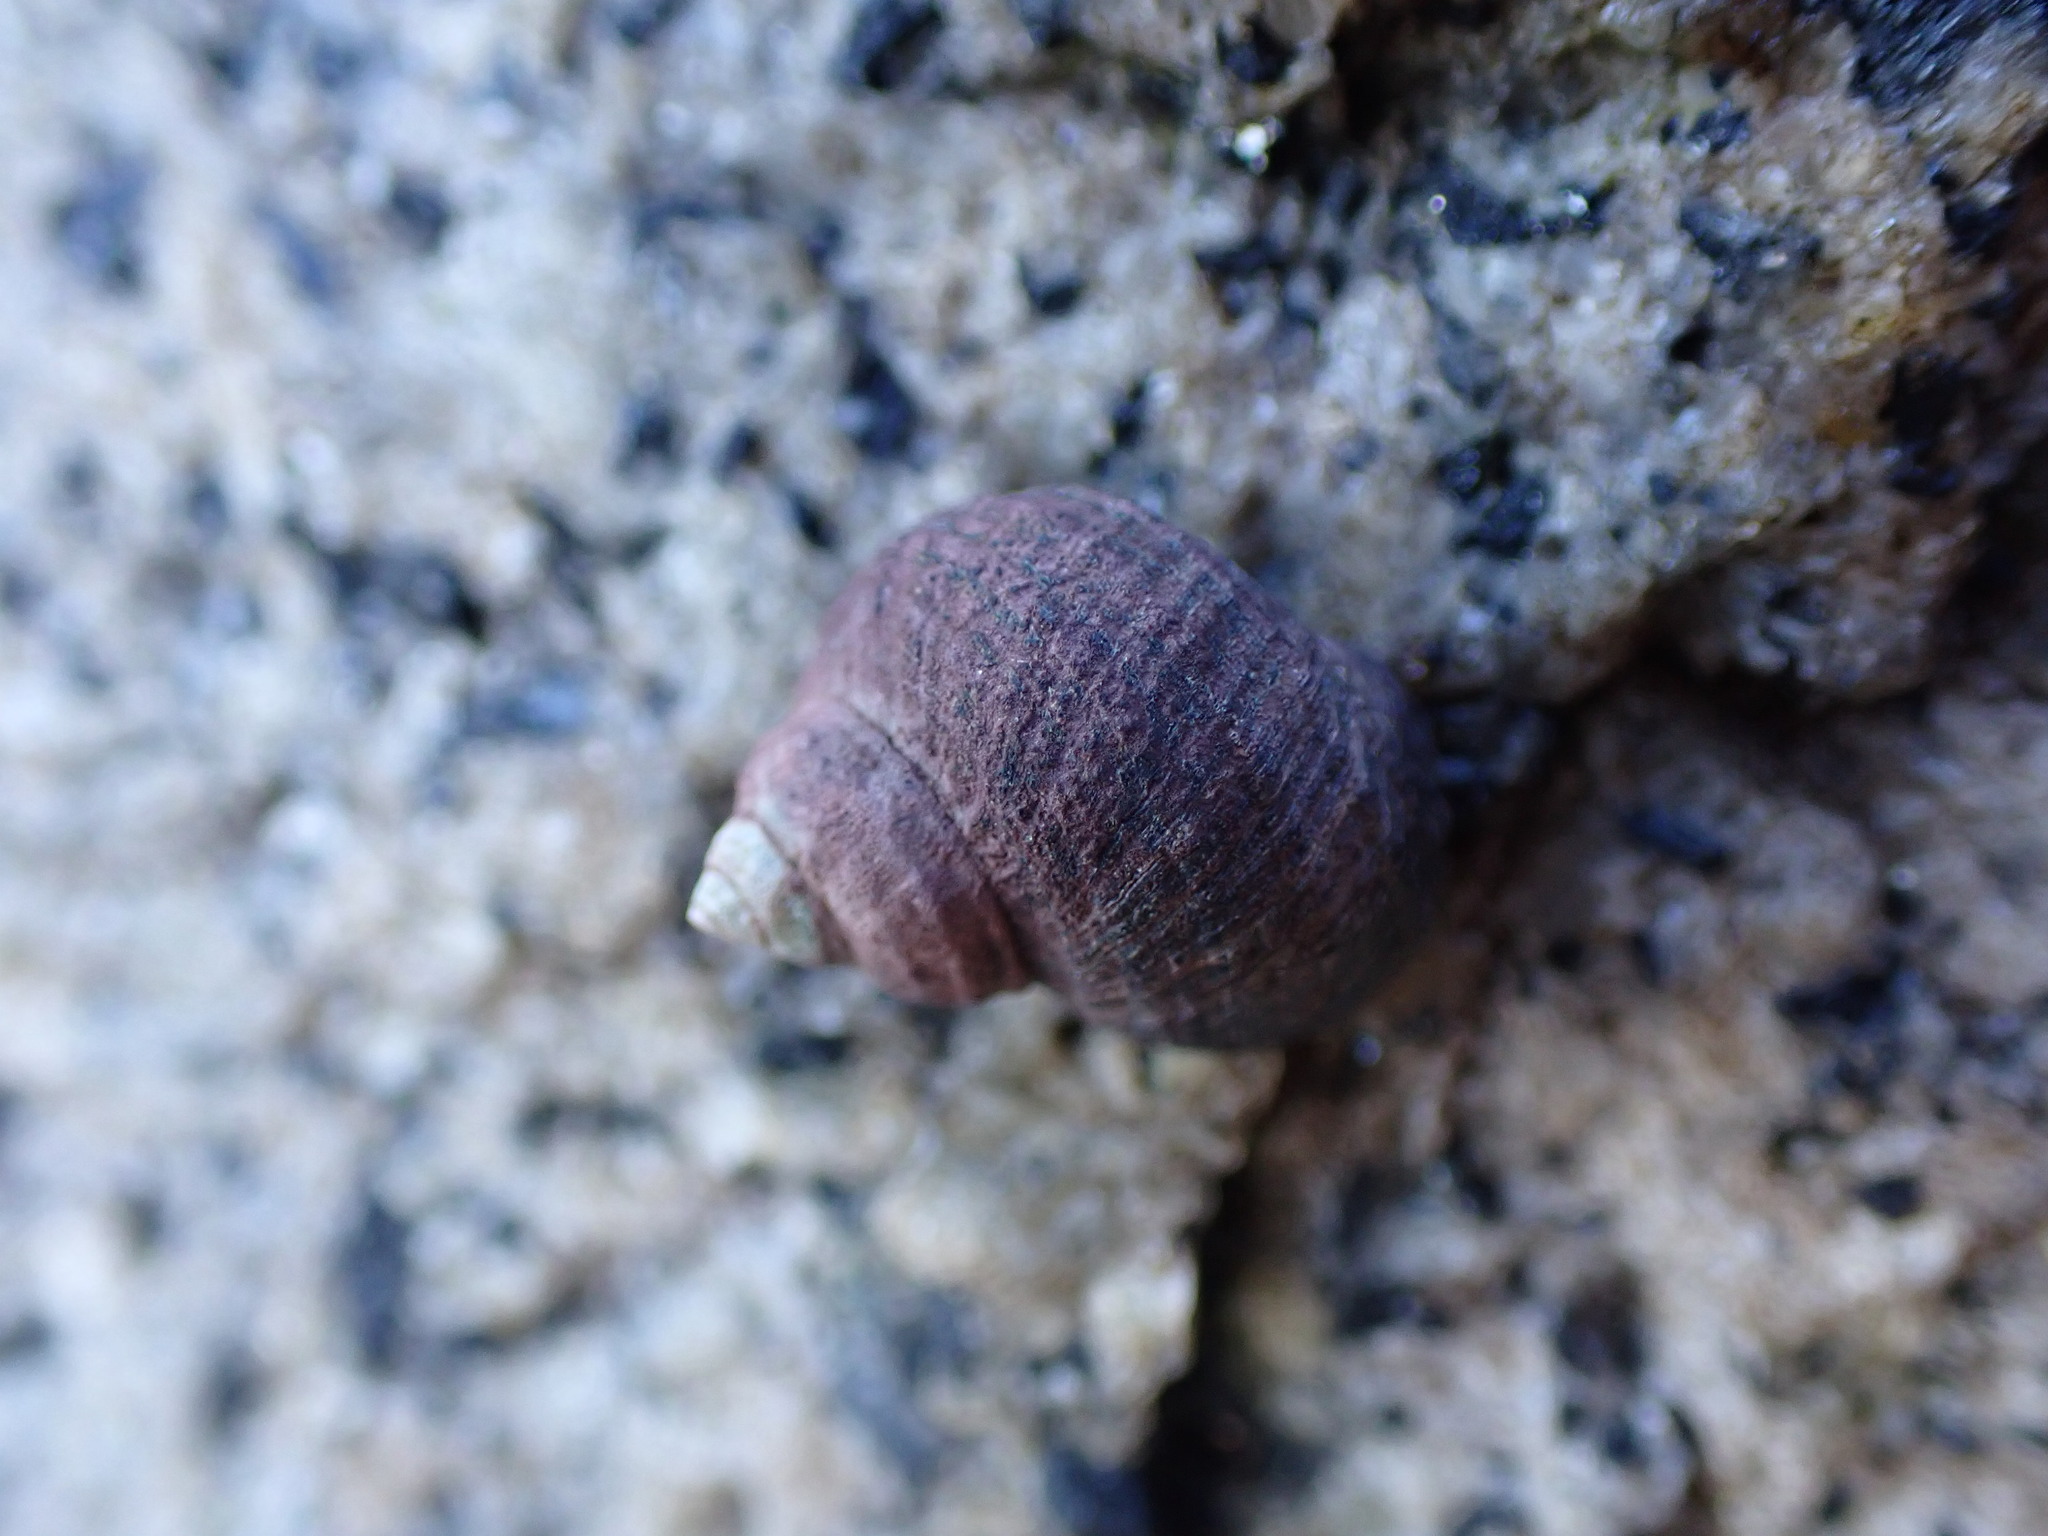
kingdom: Animalia
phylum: Mollusca
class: Gastropoda
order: Littorinimorpha
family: Littorinidae
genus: Littorina
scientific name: Littorina sitkana
